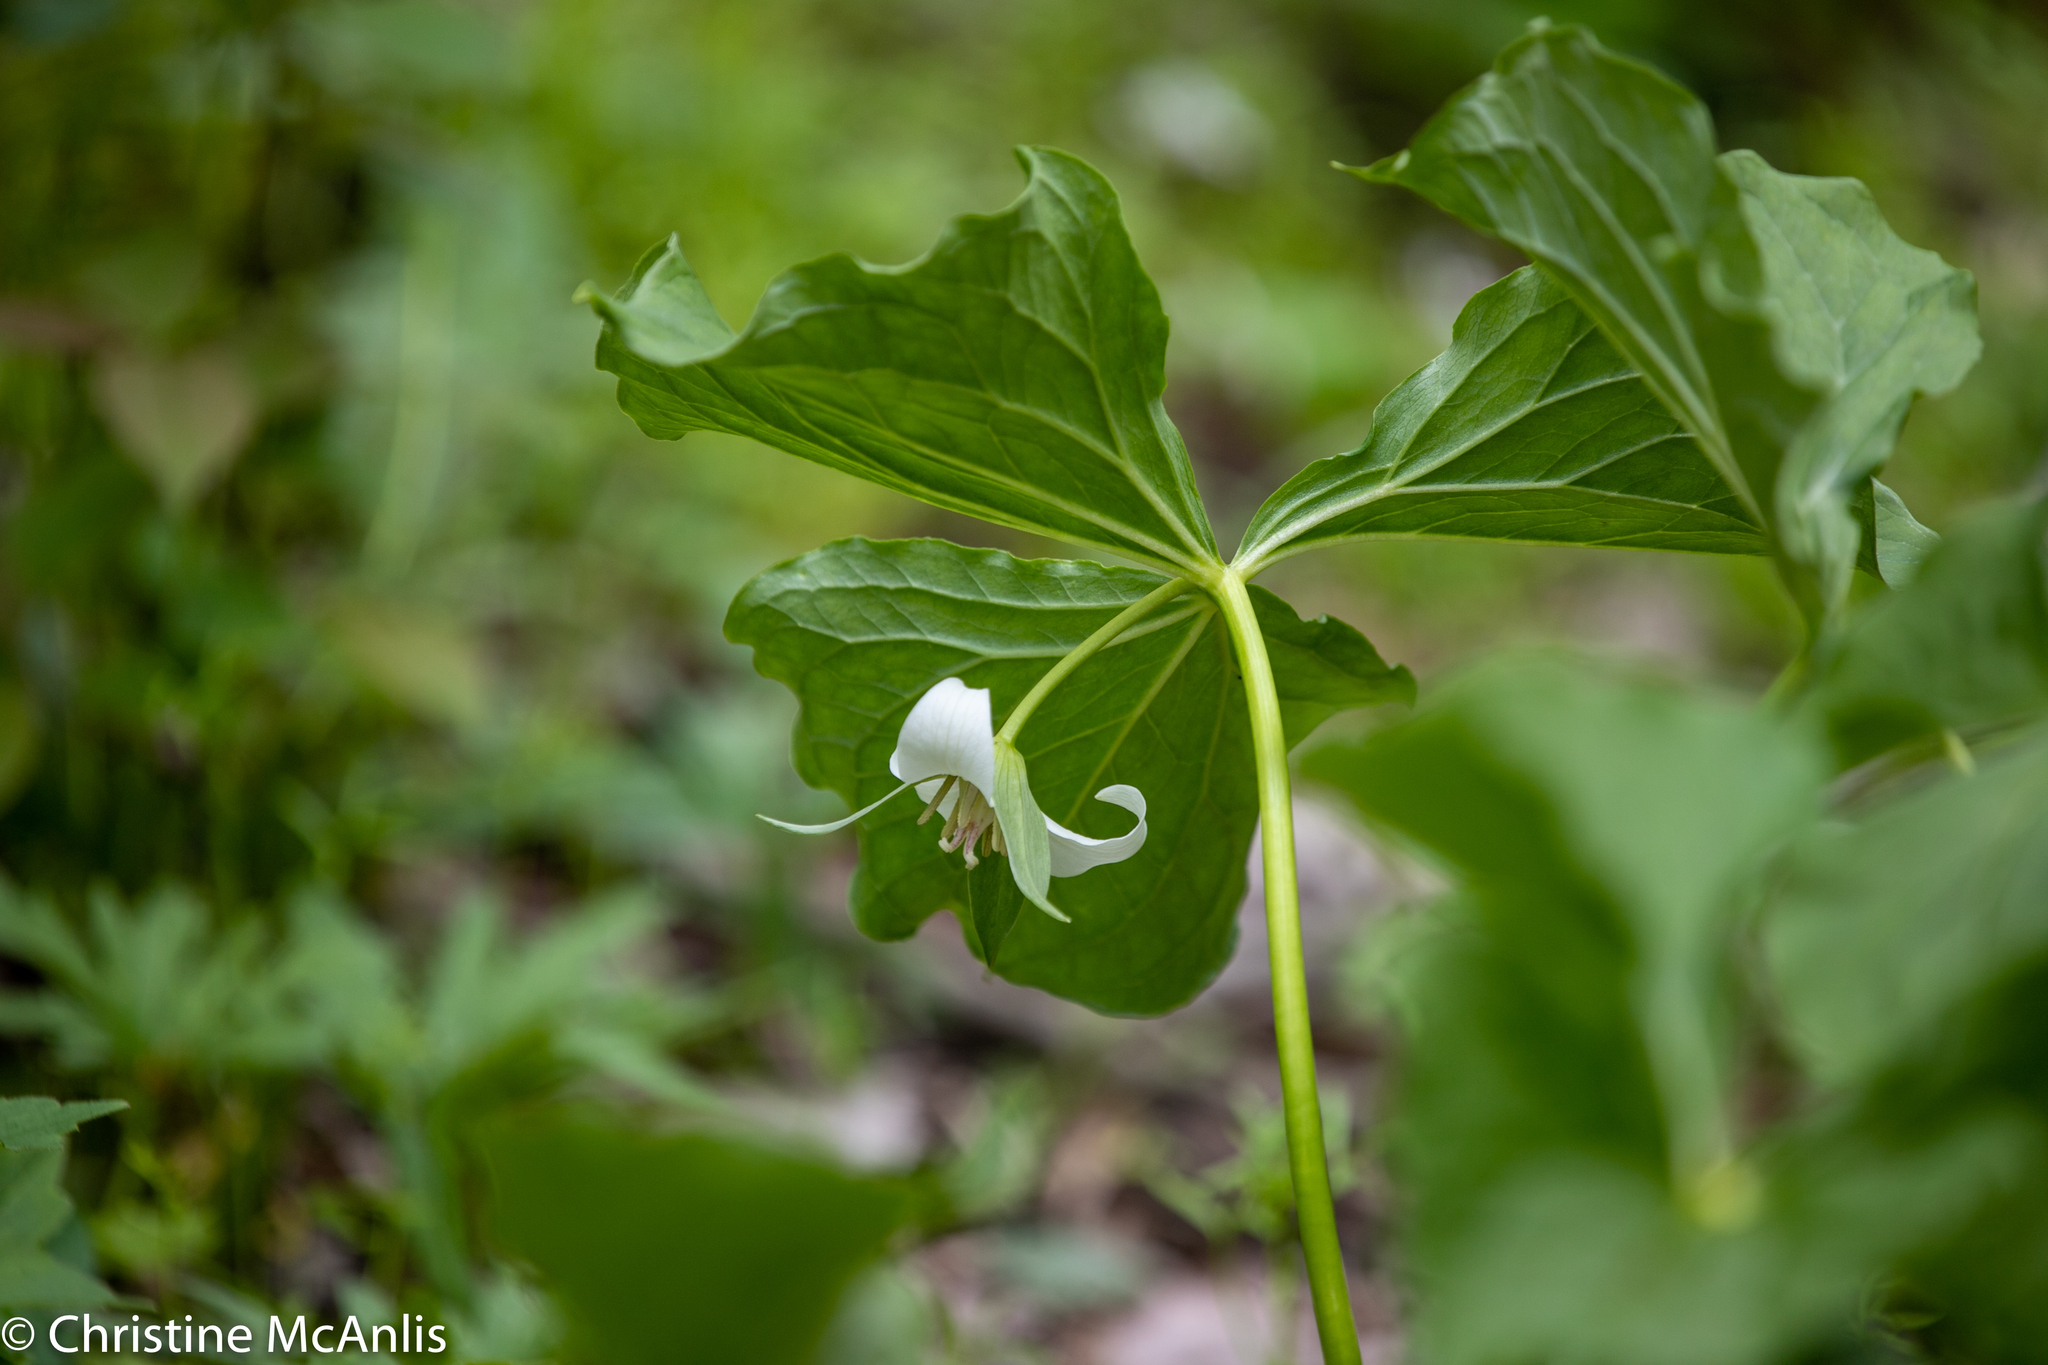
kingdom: Plantae
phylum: Tracheophyta
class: Liliopsida
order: Liliales
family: Melanthiaceae
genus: Trillium
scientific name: Trillium flexipes
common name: Drooping trillium
